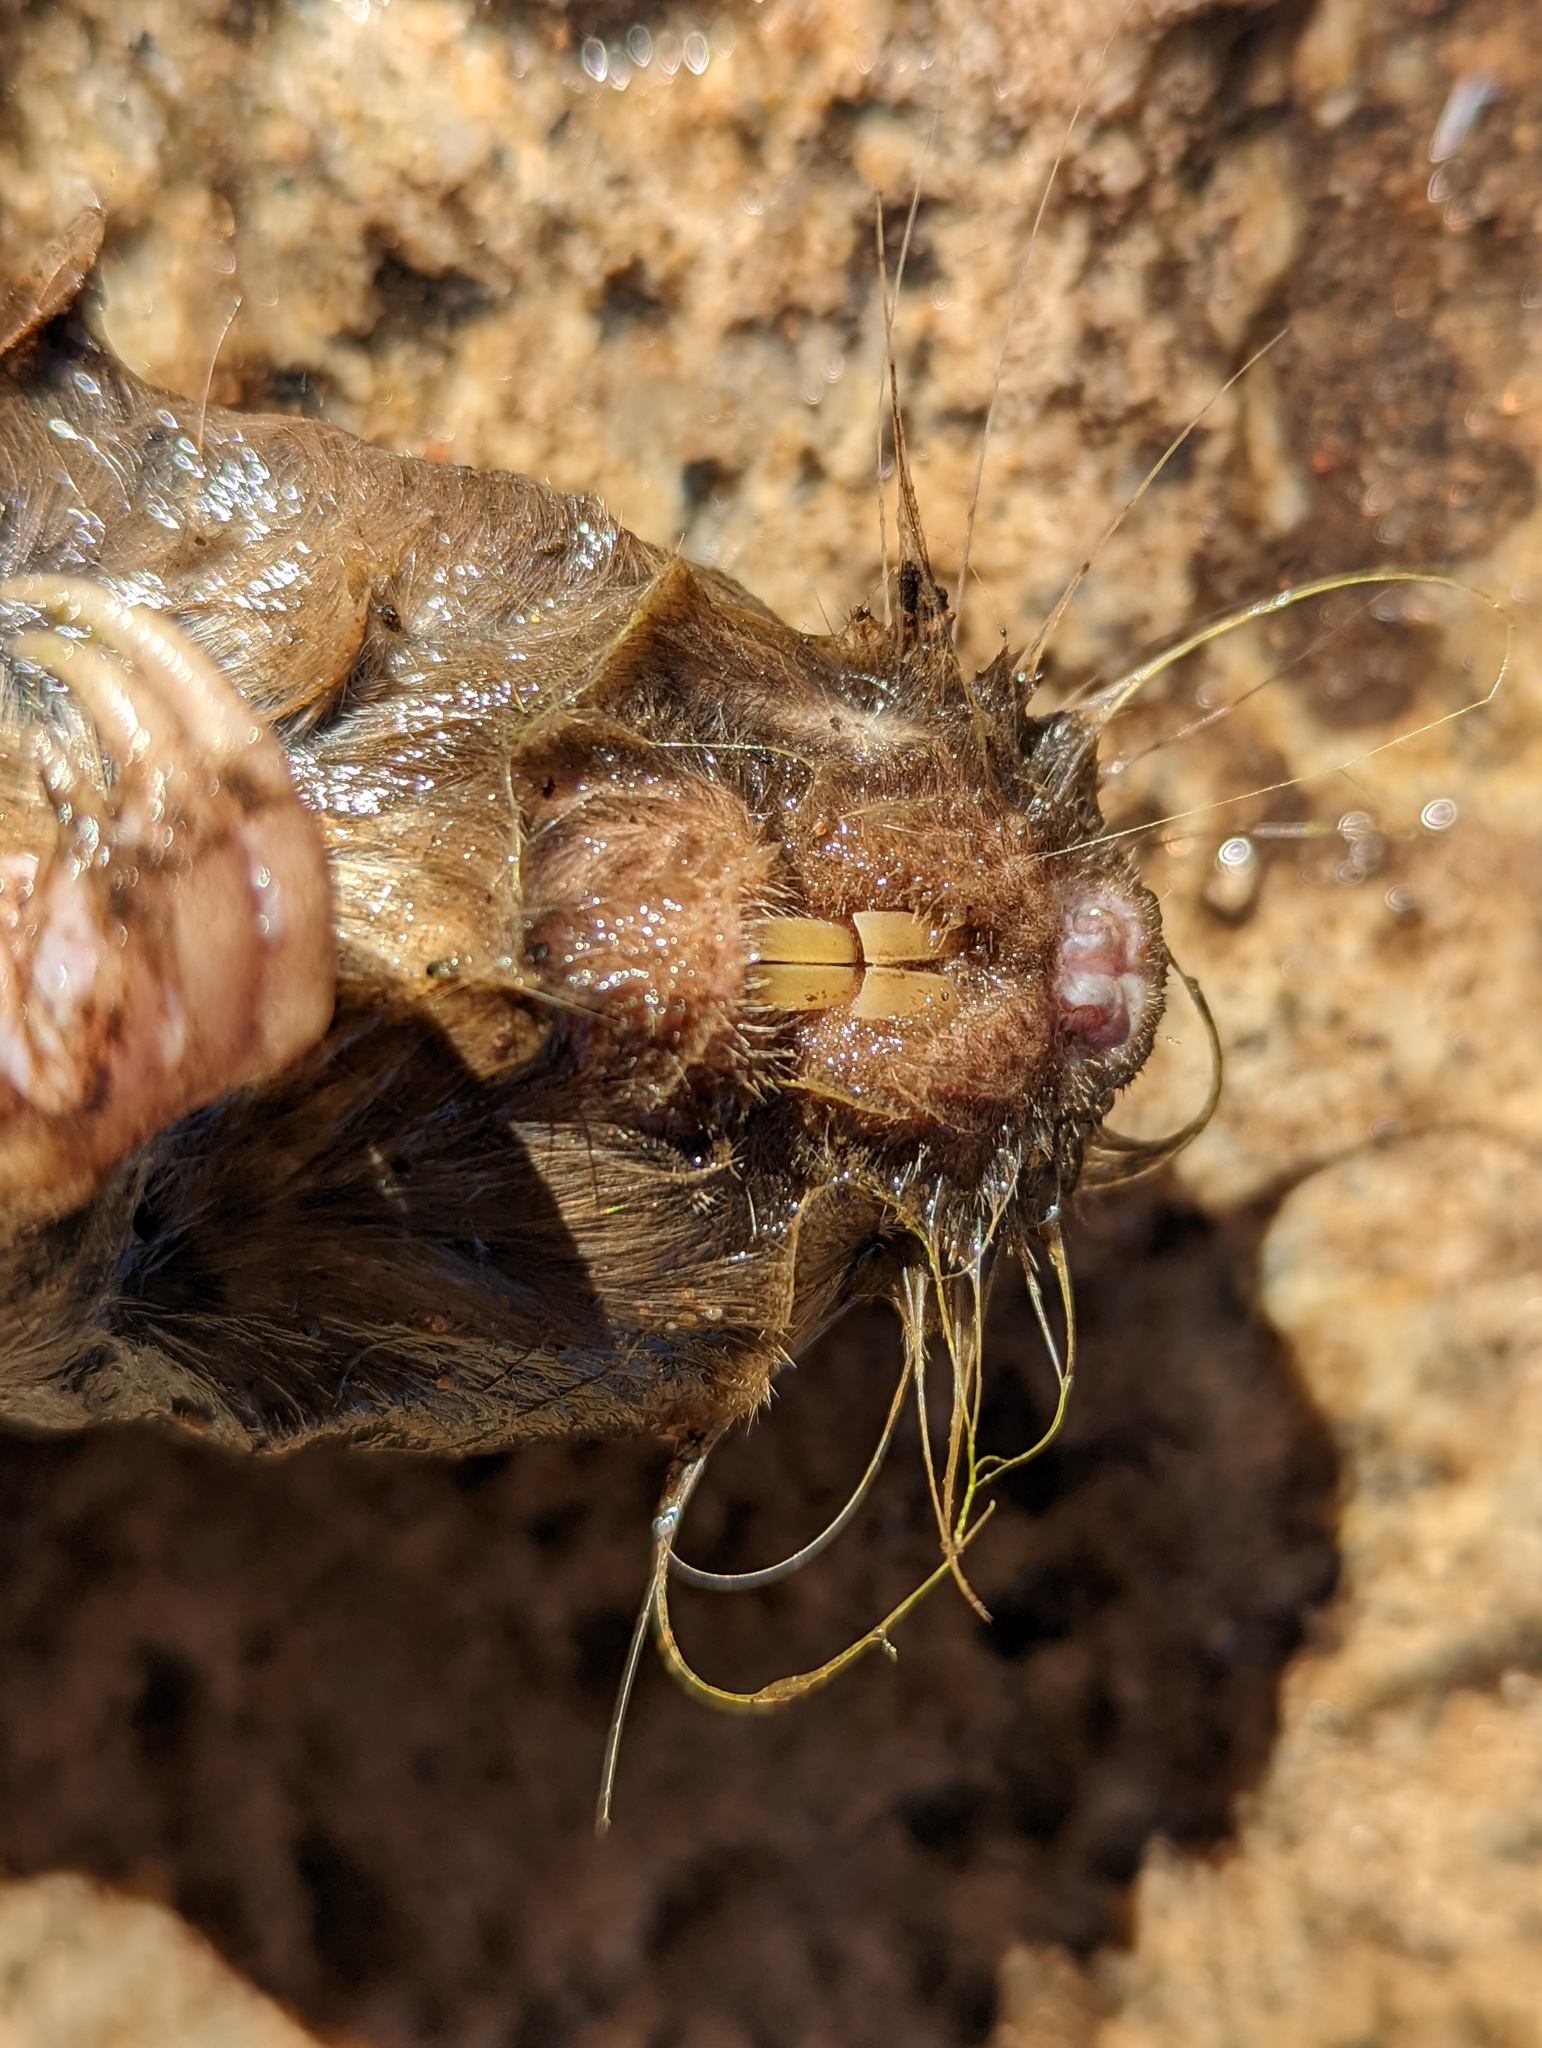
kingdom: Animalia
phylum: Chordata
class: Mammalia
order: Rodentia
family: Geomyidae
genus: Thomomys
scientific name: Thomomys bottae
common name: Botta's pocket gopher
